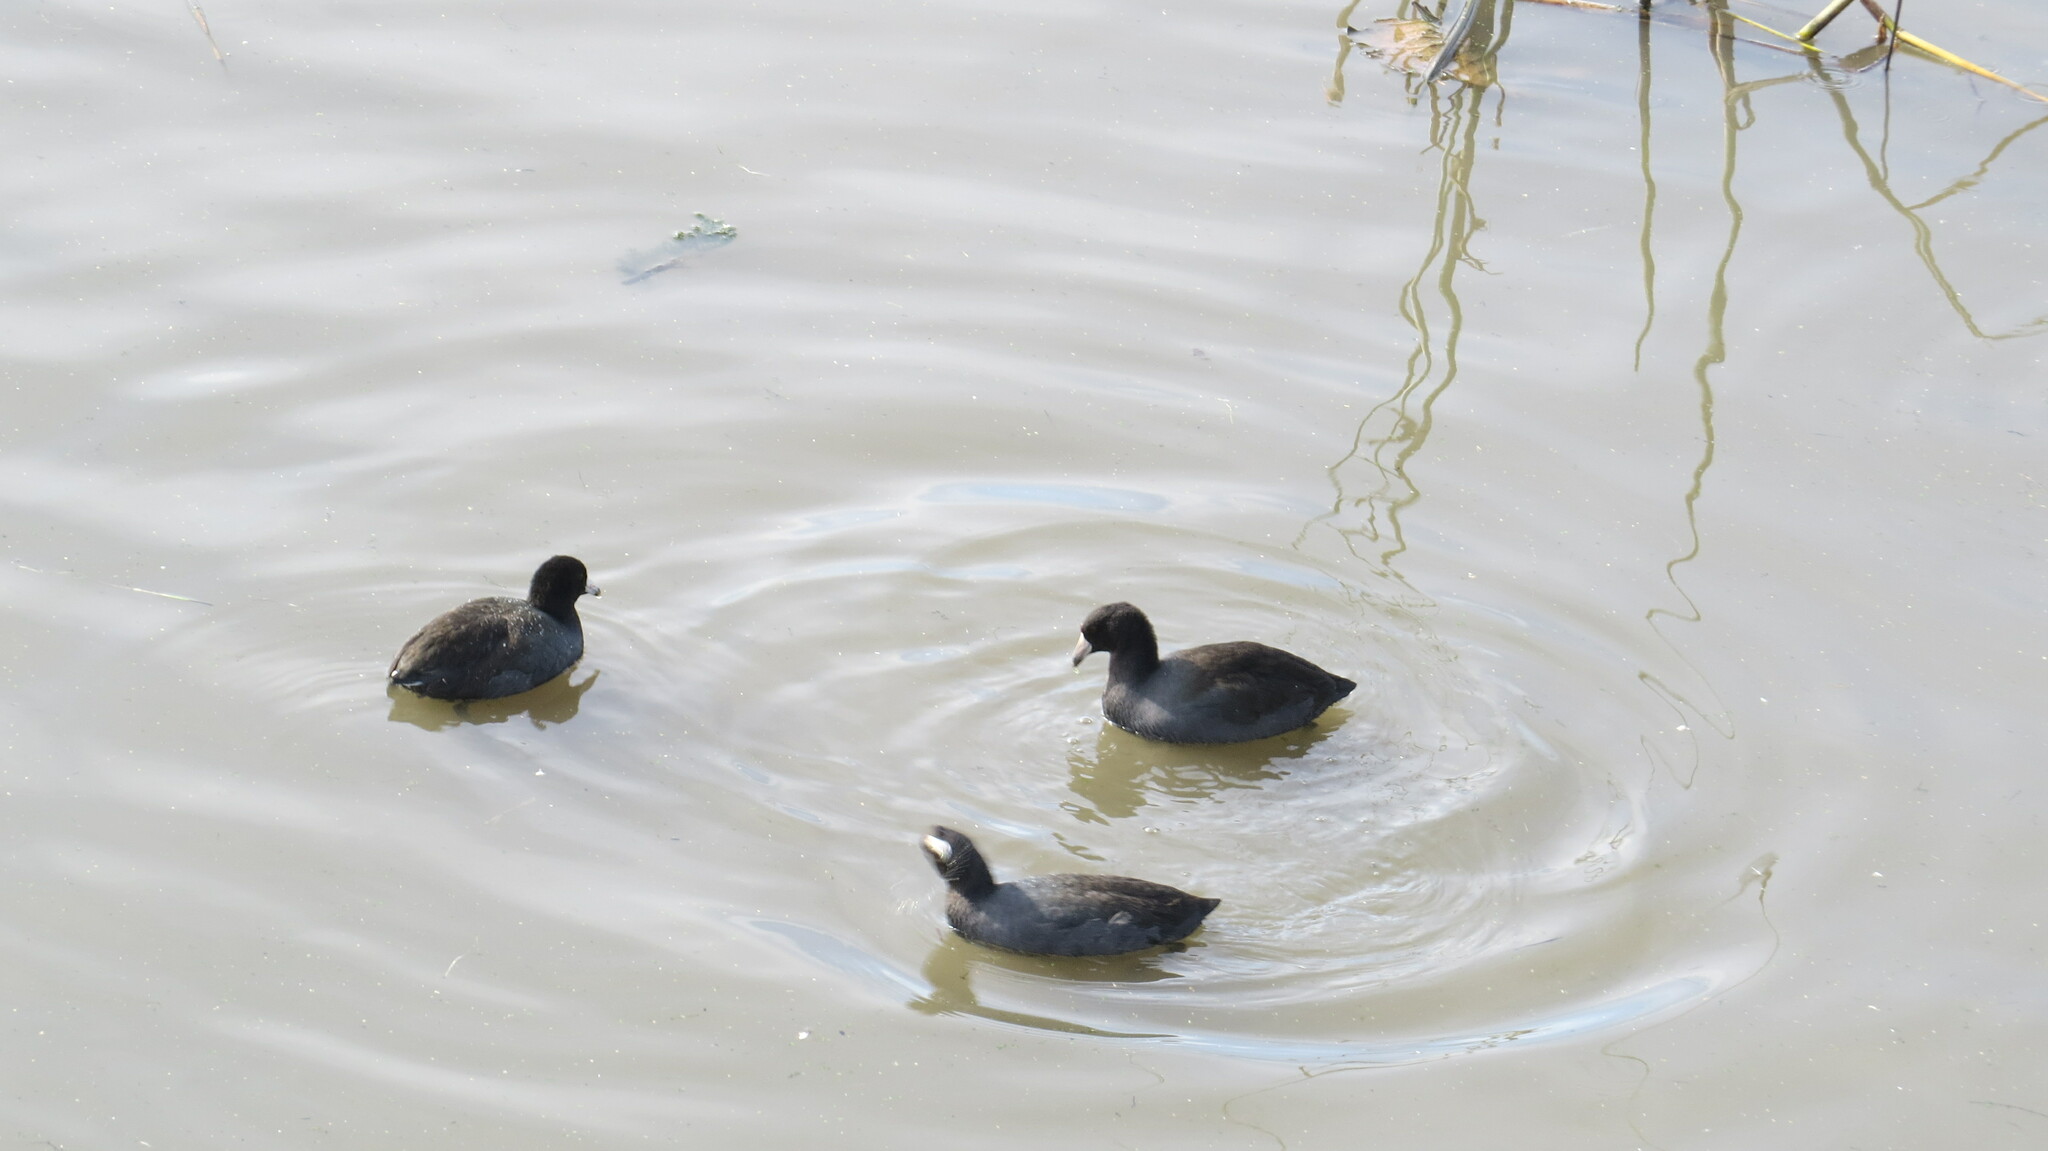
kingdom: Animalia
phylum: Chordata
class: Aves
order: Gruiformes
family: Rallidae
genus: Fulica
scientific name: Fulica americana
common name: American coot
